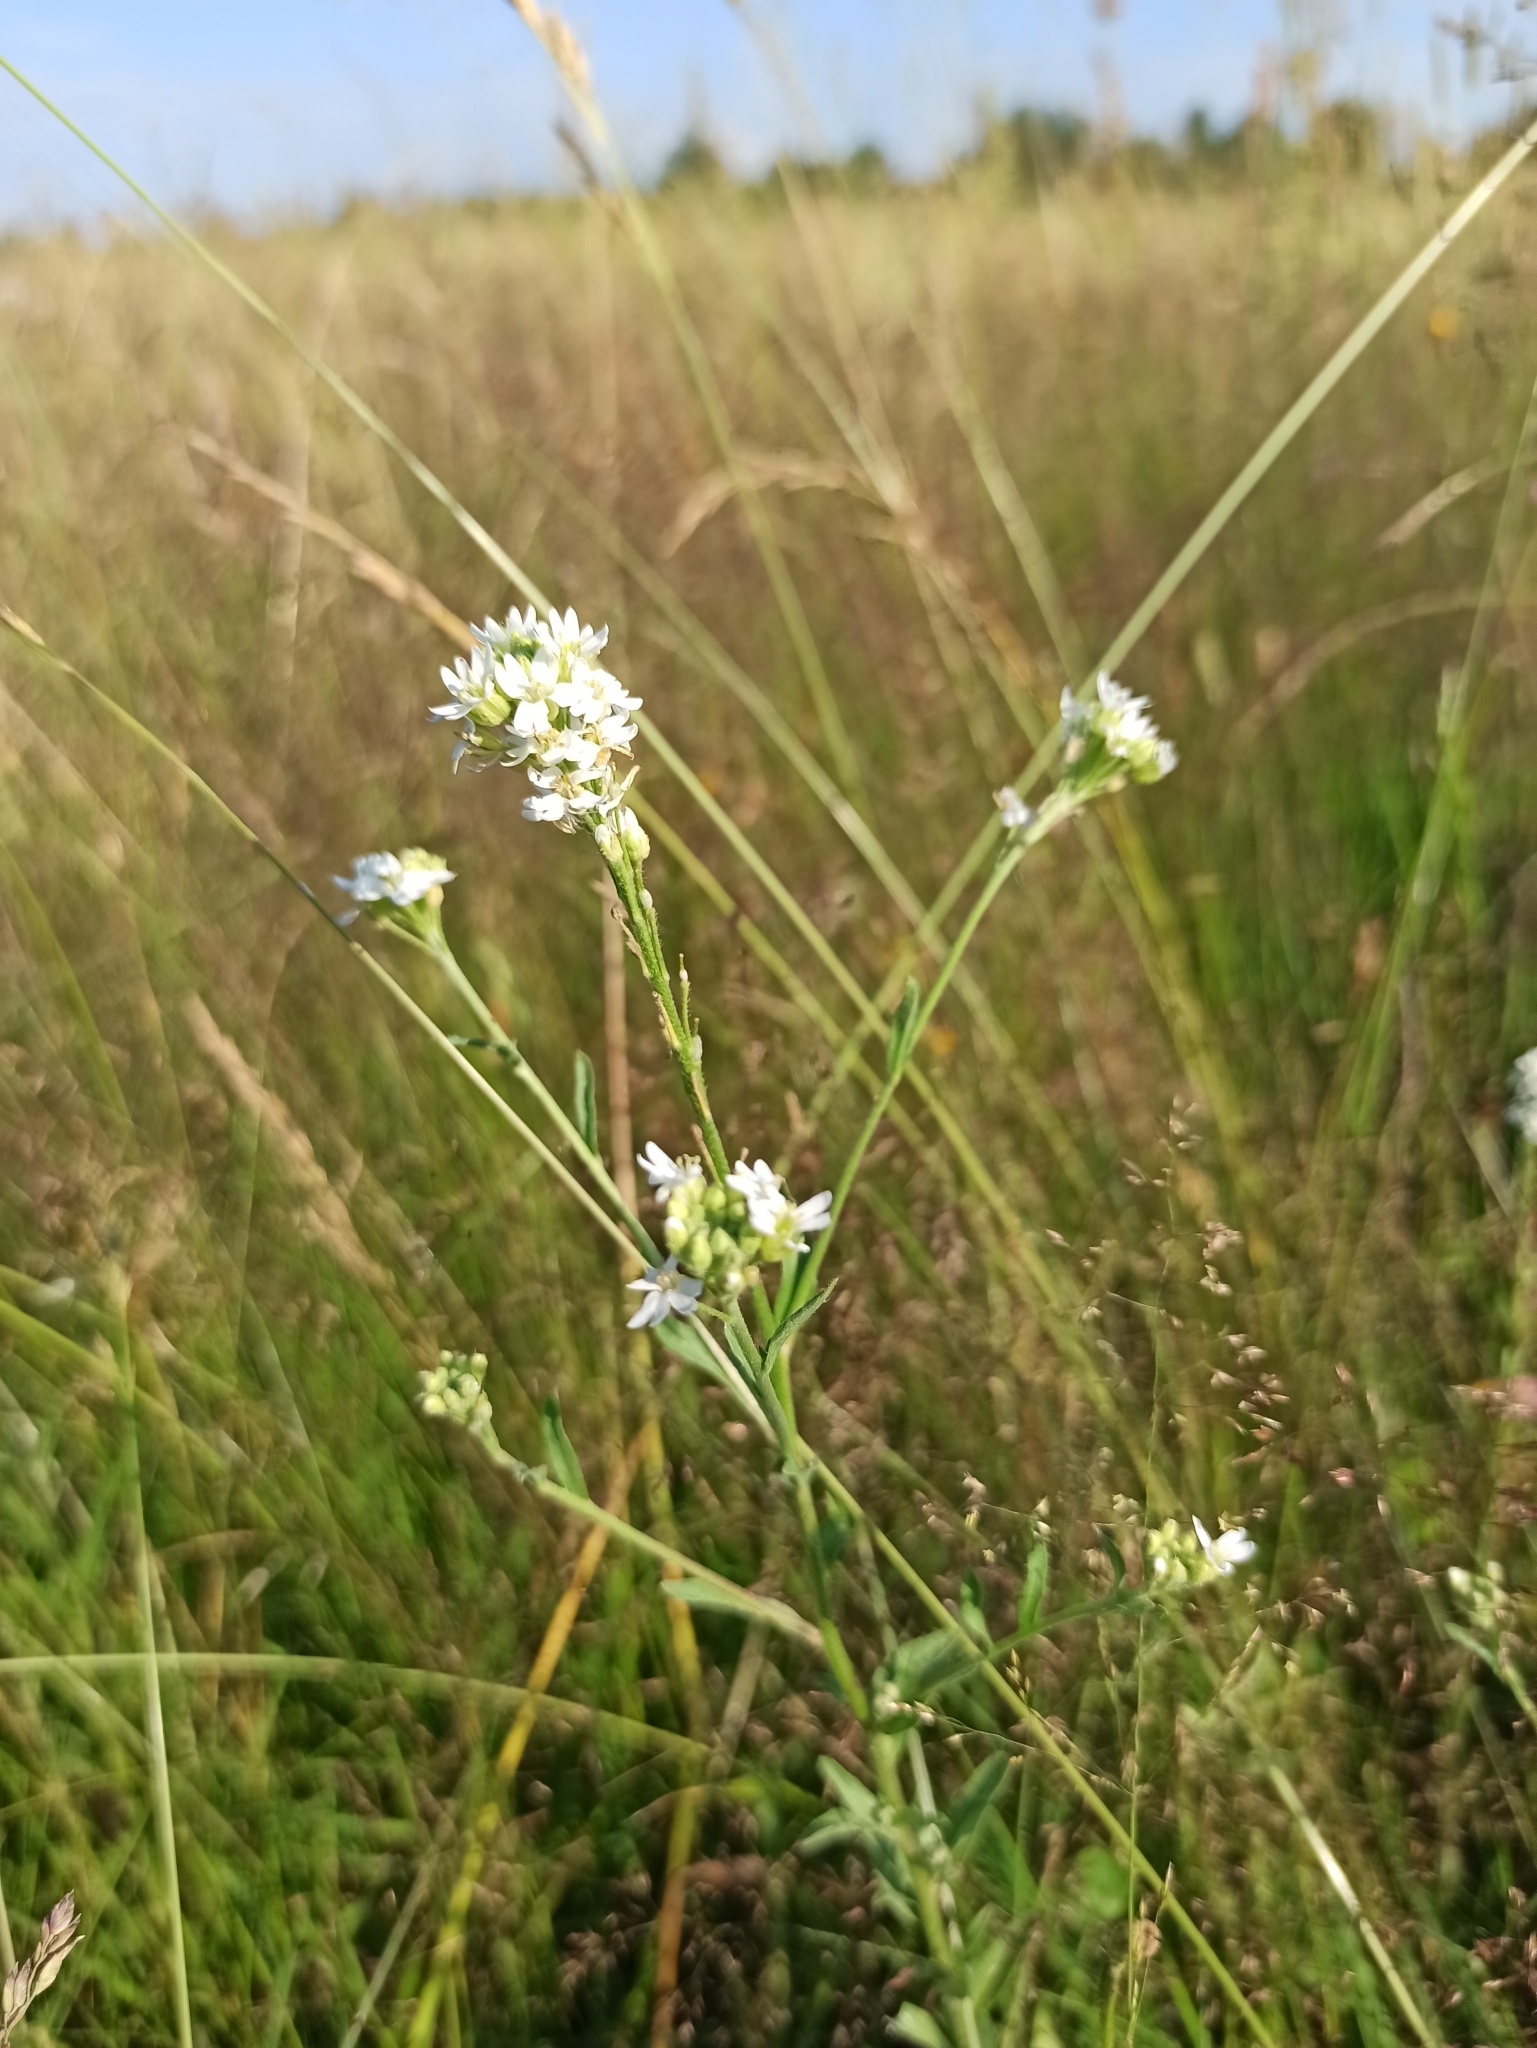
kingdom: Plantae
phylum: Tracheophyta
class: Magnoliopsida
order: Brassicales
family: Brassicaceae
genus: Berteroa
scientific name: Berteroa incana
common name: Hoary alison
